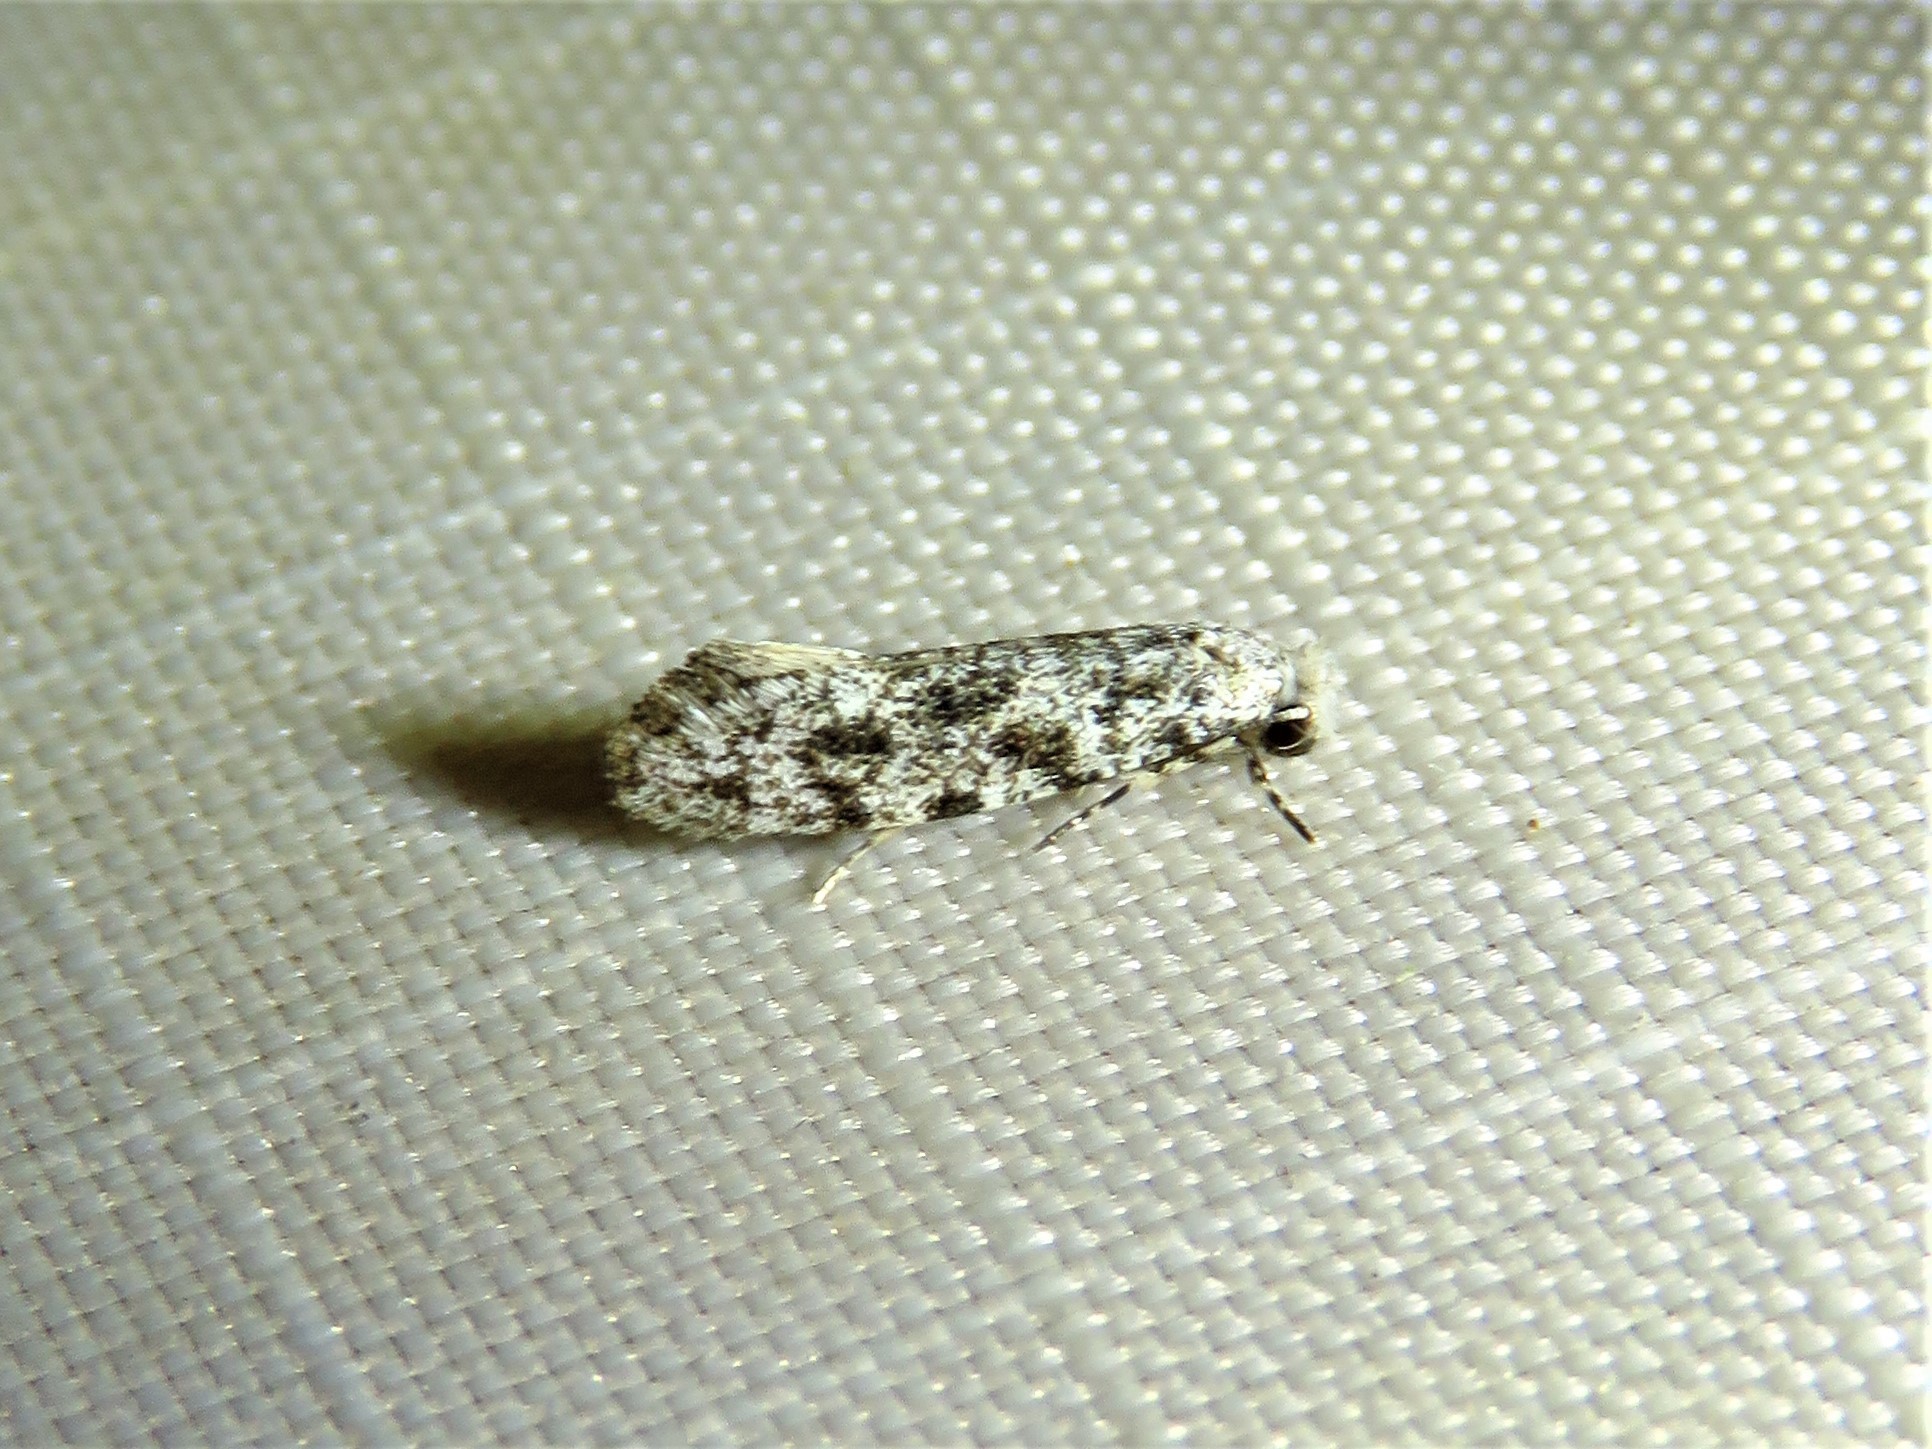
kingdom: Animalia
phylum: Arthropoda
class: Insecta
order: Lepidoptera
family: Meessiidae
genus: Diachorisia
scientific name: Diachorisia velatella
